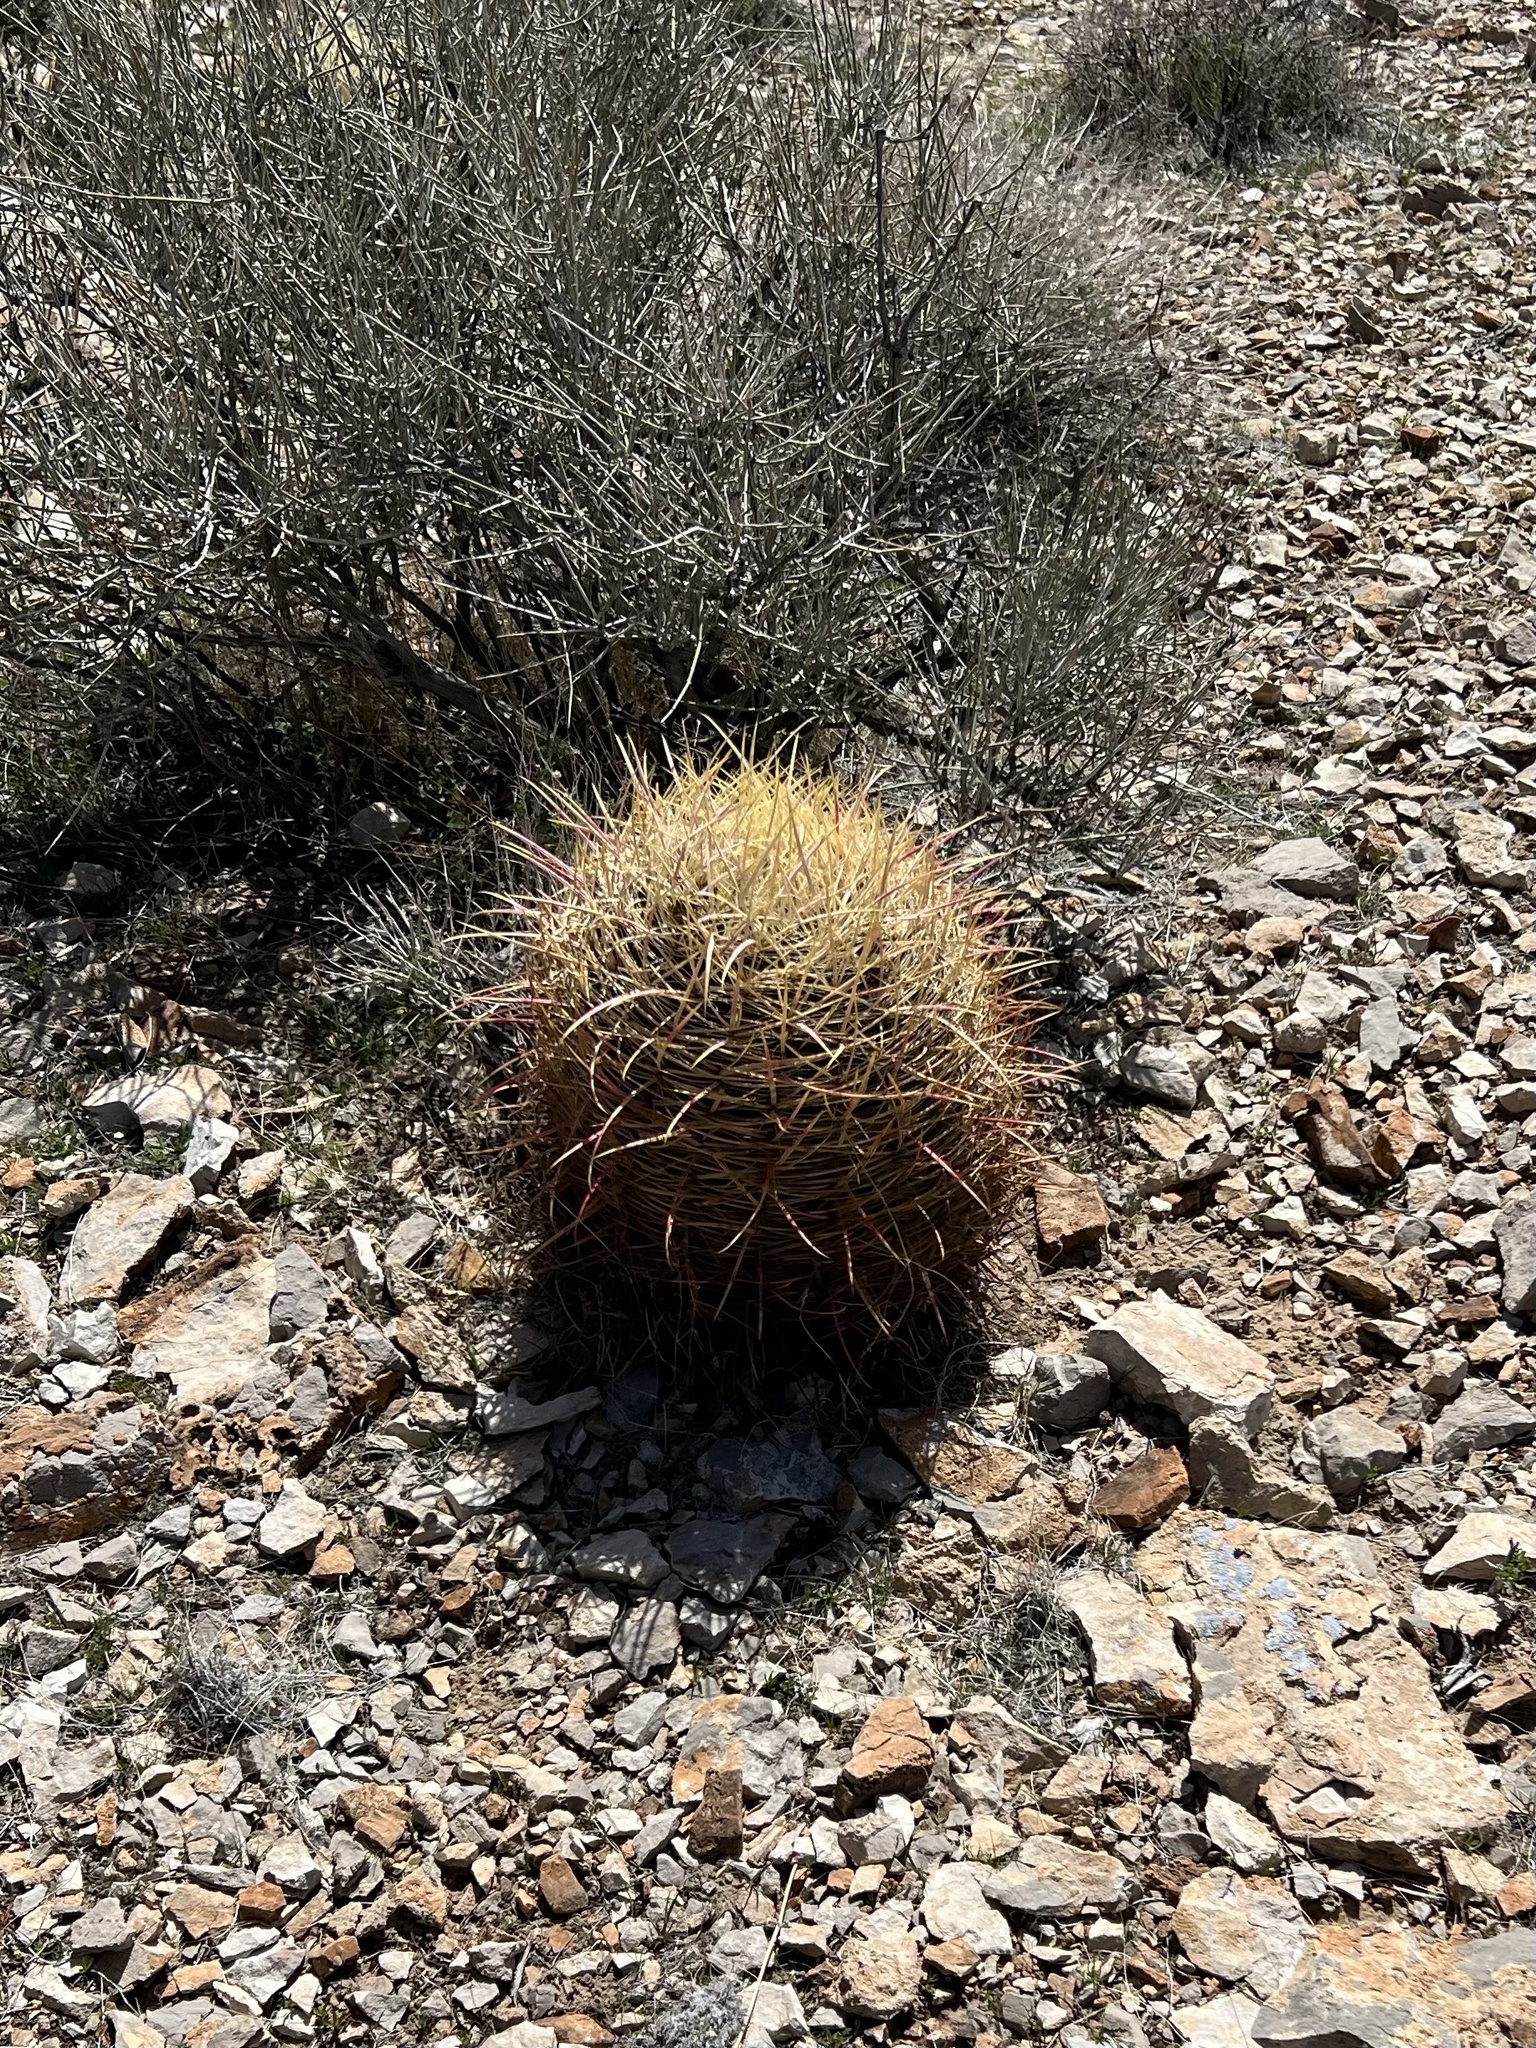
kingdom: Plantae
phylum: Tracheophyta
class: Magnoliopsida
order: Caryophyllales
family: Cactaceae
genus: Ferocactus
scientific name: Ferocactus cylindraceus
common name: California barrel cactus
